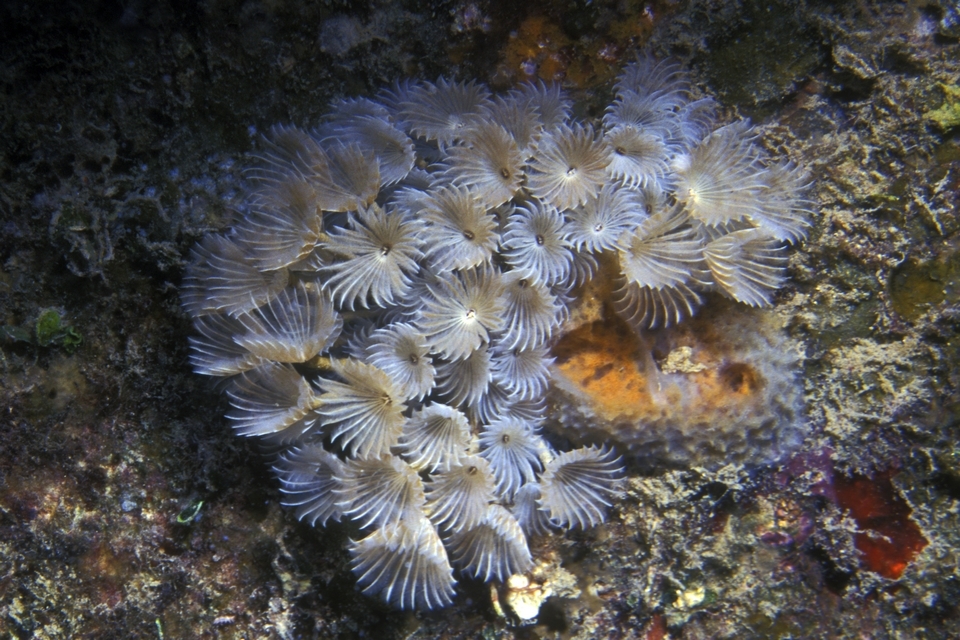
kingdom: Animalia
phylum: Annelida
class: Polychaeta
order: Sabellida
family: Sabellidae
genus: Bispira
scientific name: Bispira brunnea
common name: Social feather duster
